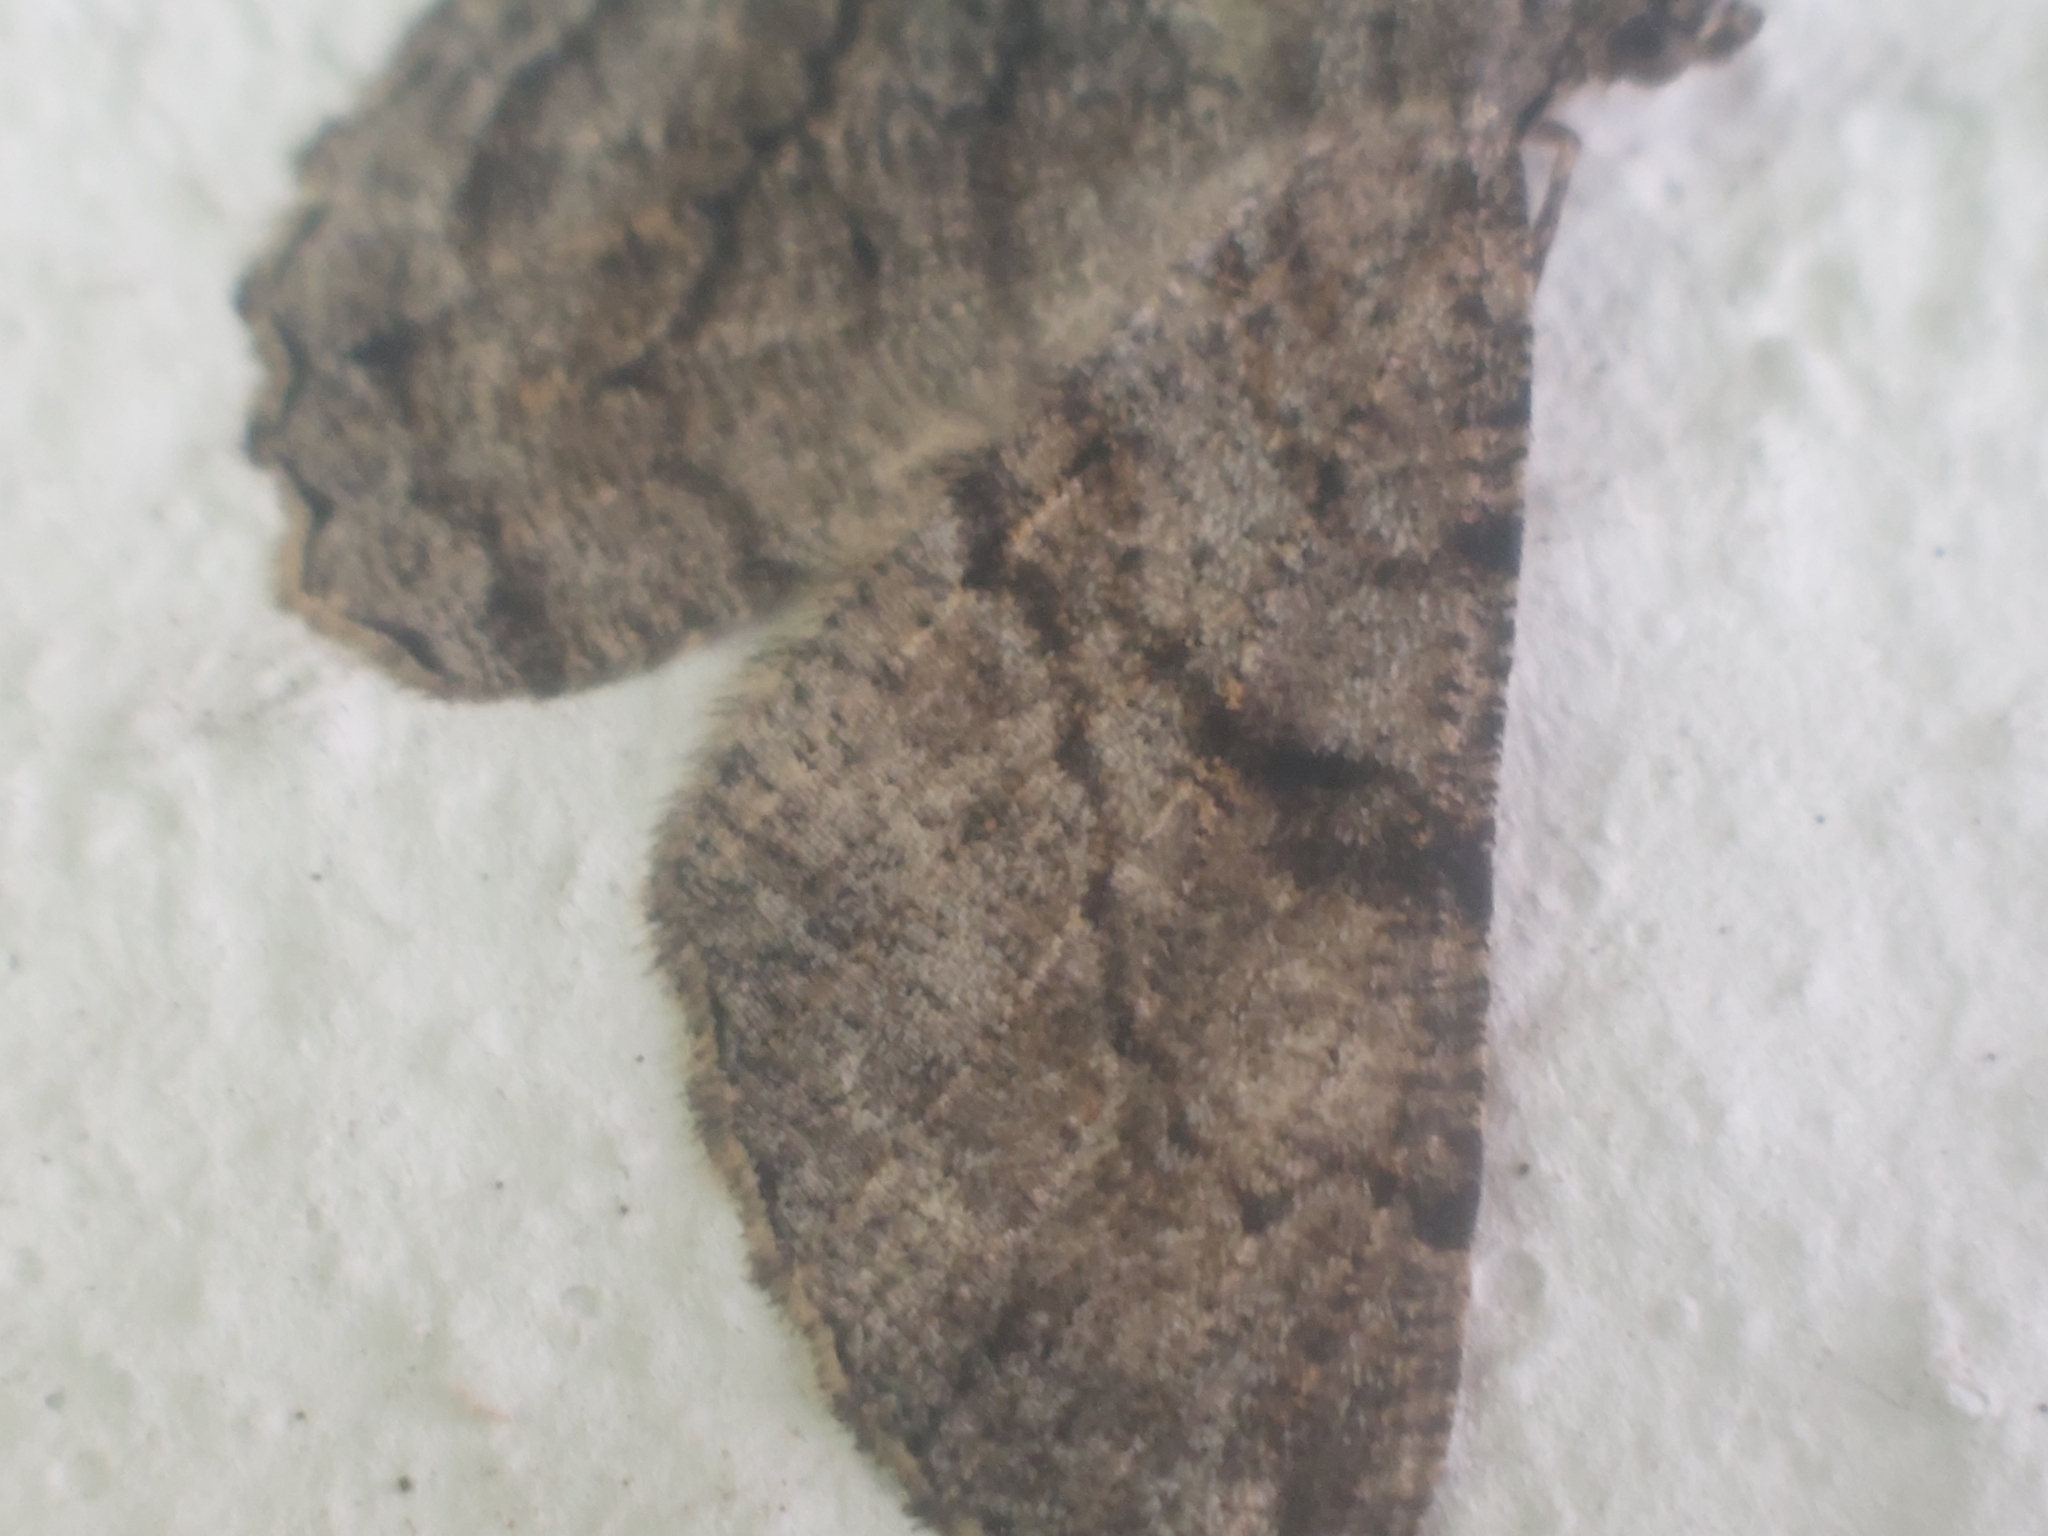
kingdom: Animalia
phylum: Arthropoda
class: Insecta
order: Lepidoptera
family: Geometridae
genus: Peribatodes
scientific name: Peribatodes rhomboidaria
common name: Willow beauty
